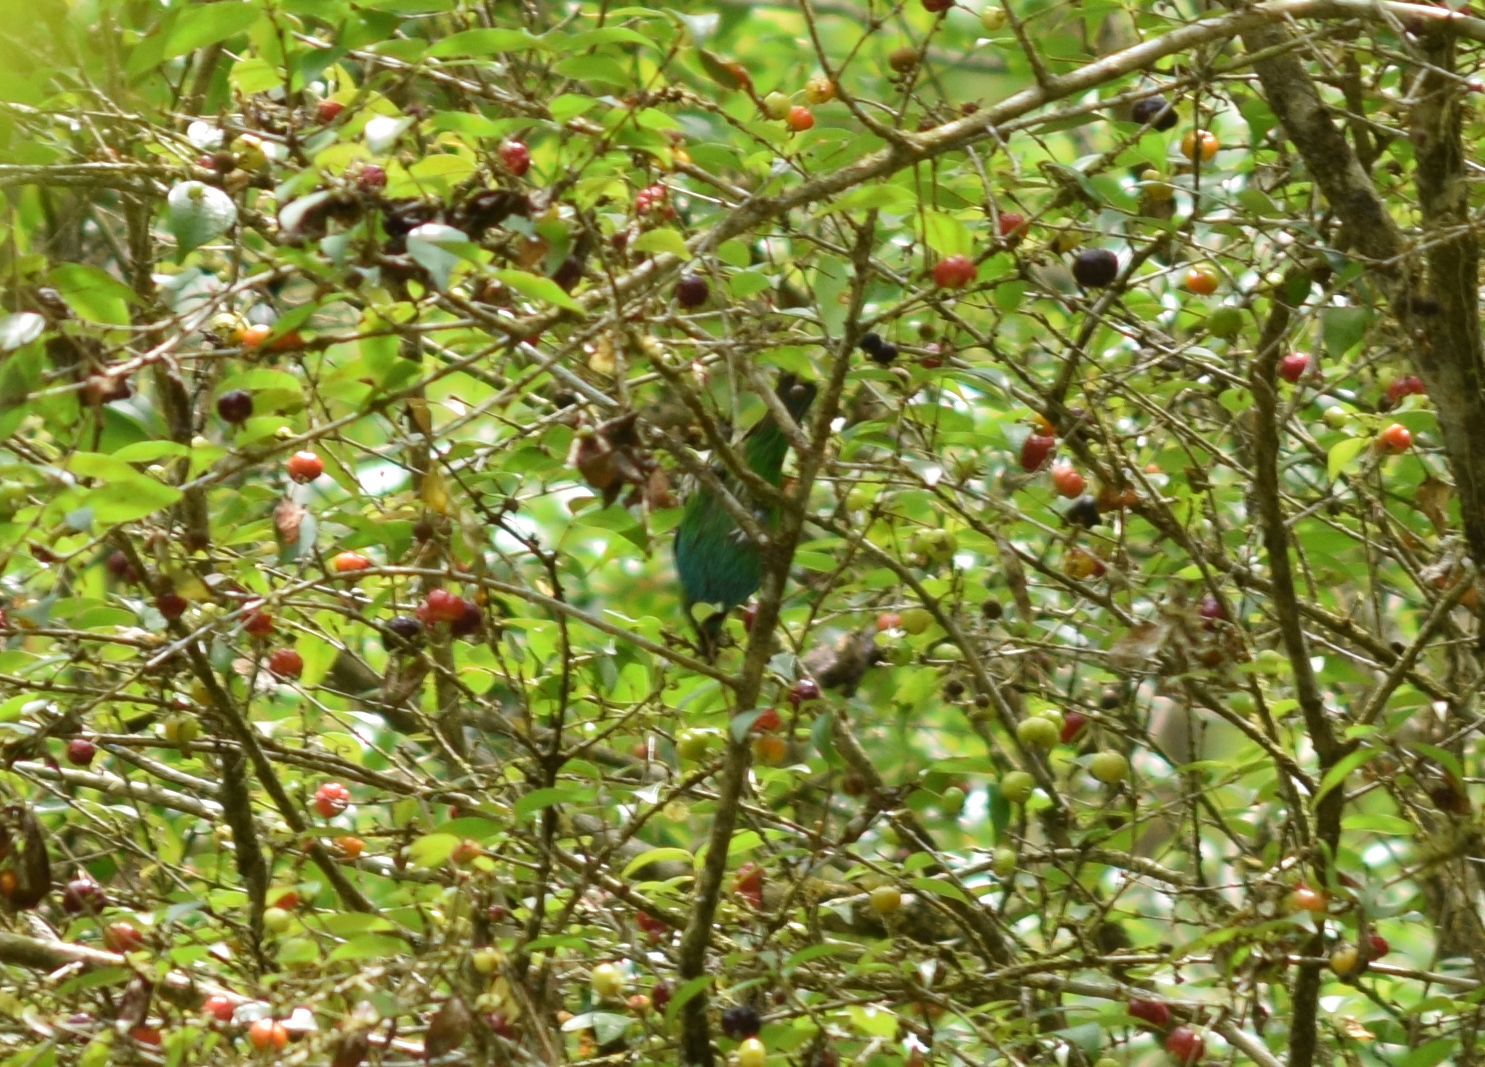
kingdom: Animalia
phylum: Chordata
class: Aves
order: Passeriformes
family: Thraupidae
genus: Tangara
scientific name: Tangara seledon
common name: Green-headed tanager
